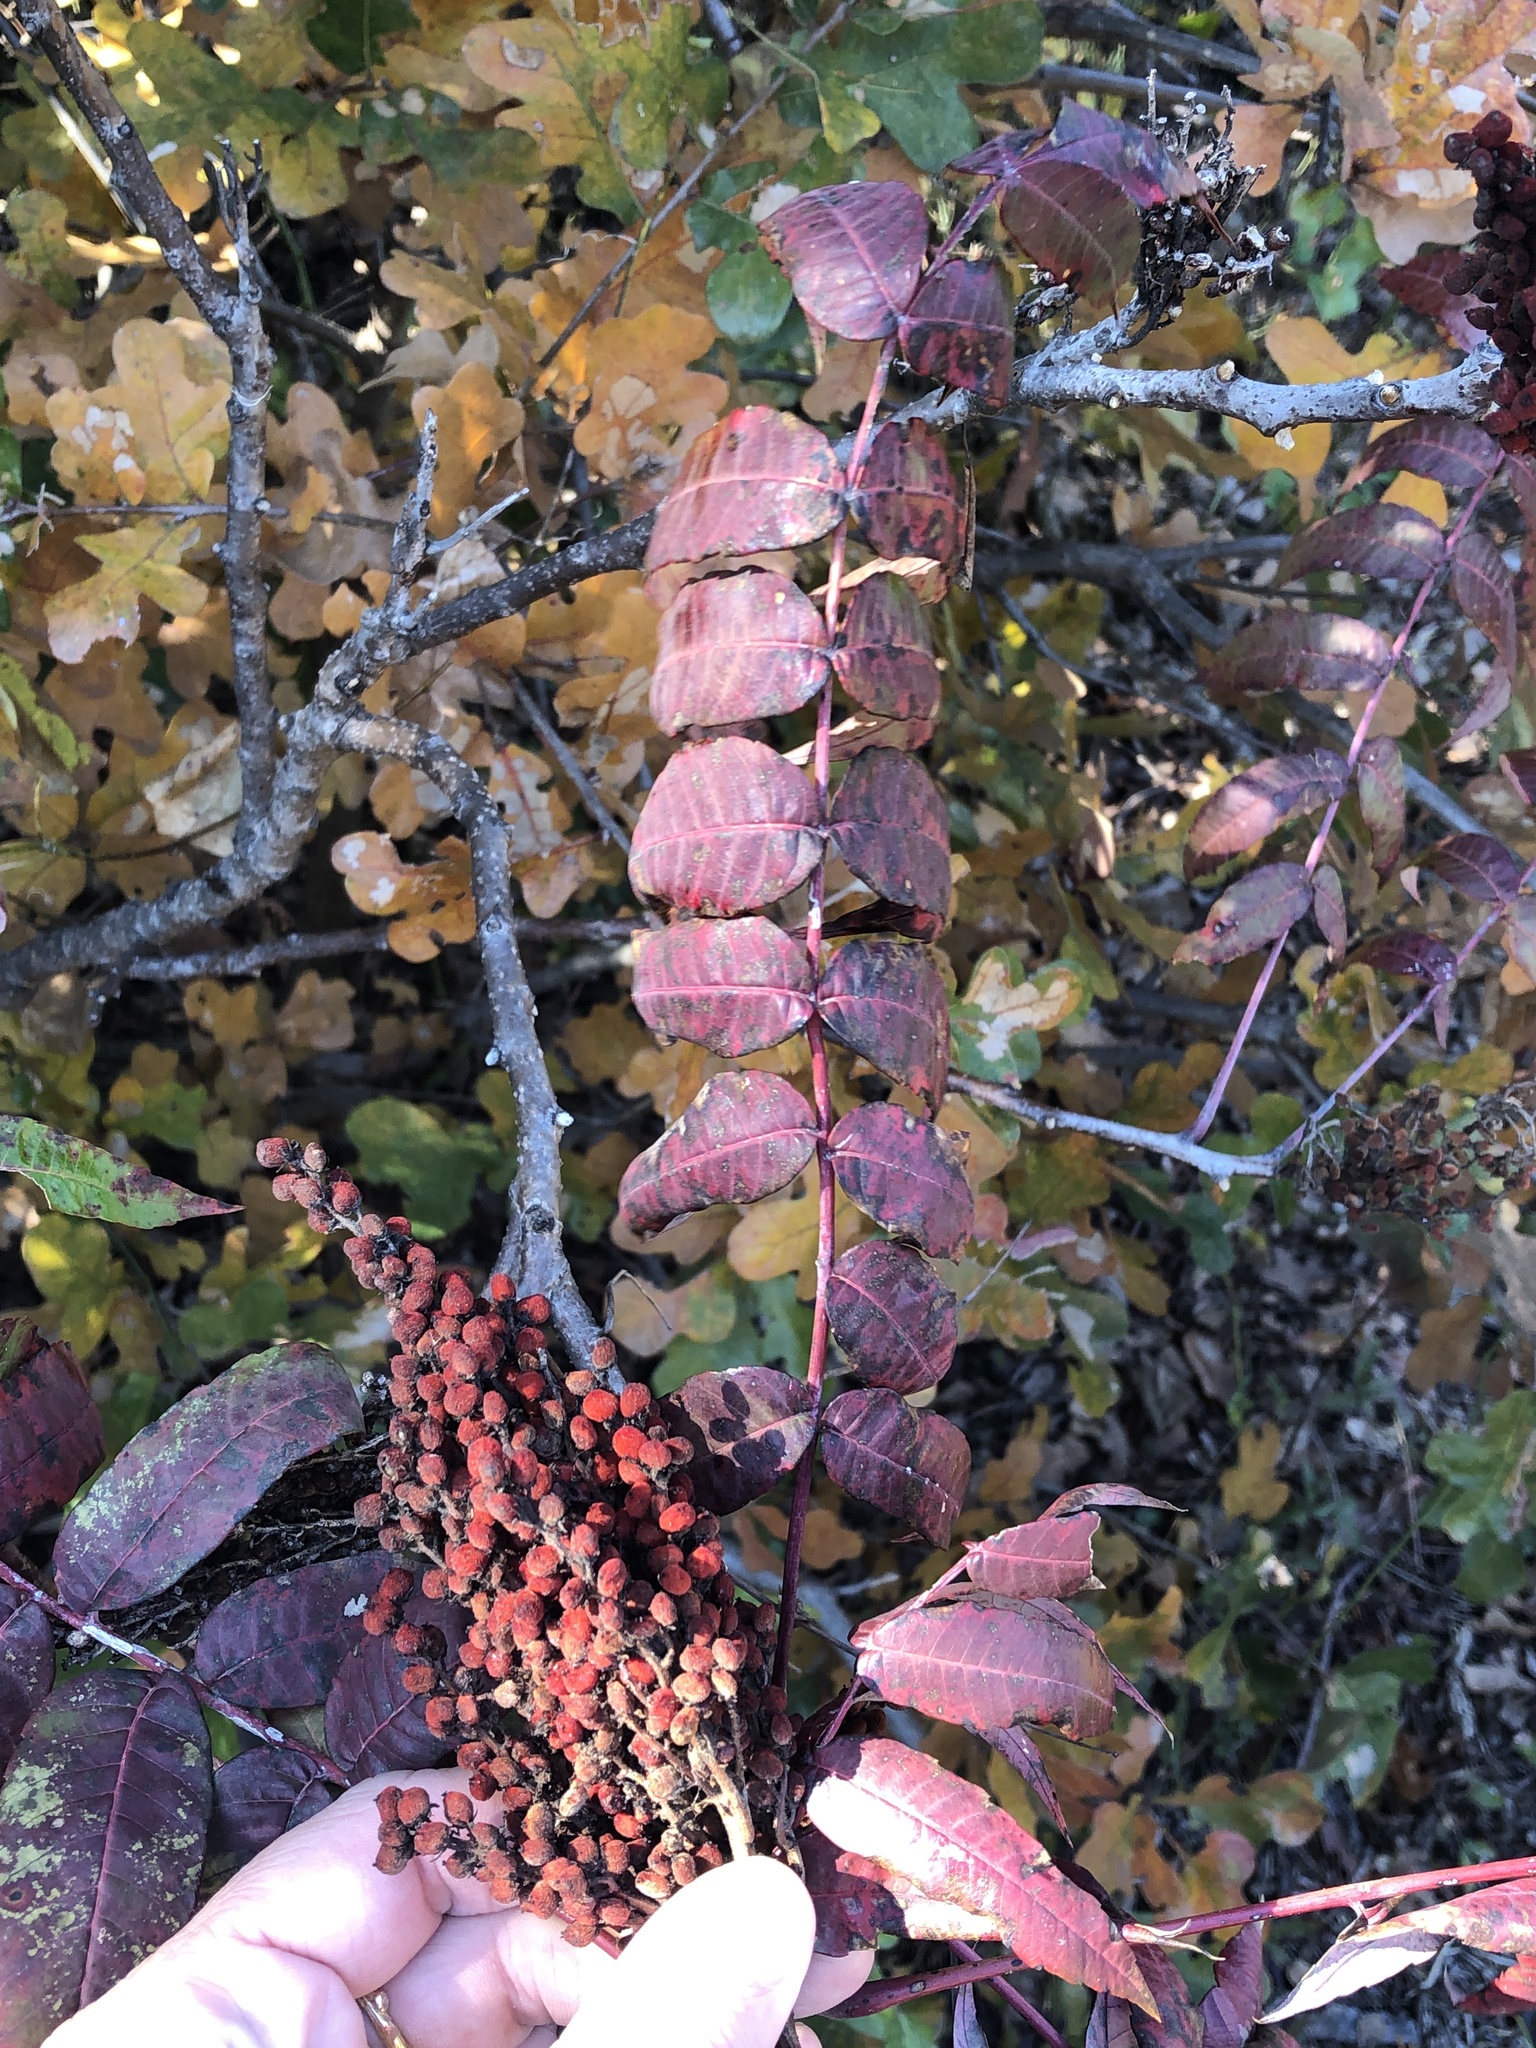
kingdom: Plantae
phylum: Tracheophyta
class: Magnoliopsida
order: Sapindales
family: Anacardiaceae
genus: Rhus
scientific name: Rhus glabra
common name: Scarlet sumac
